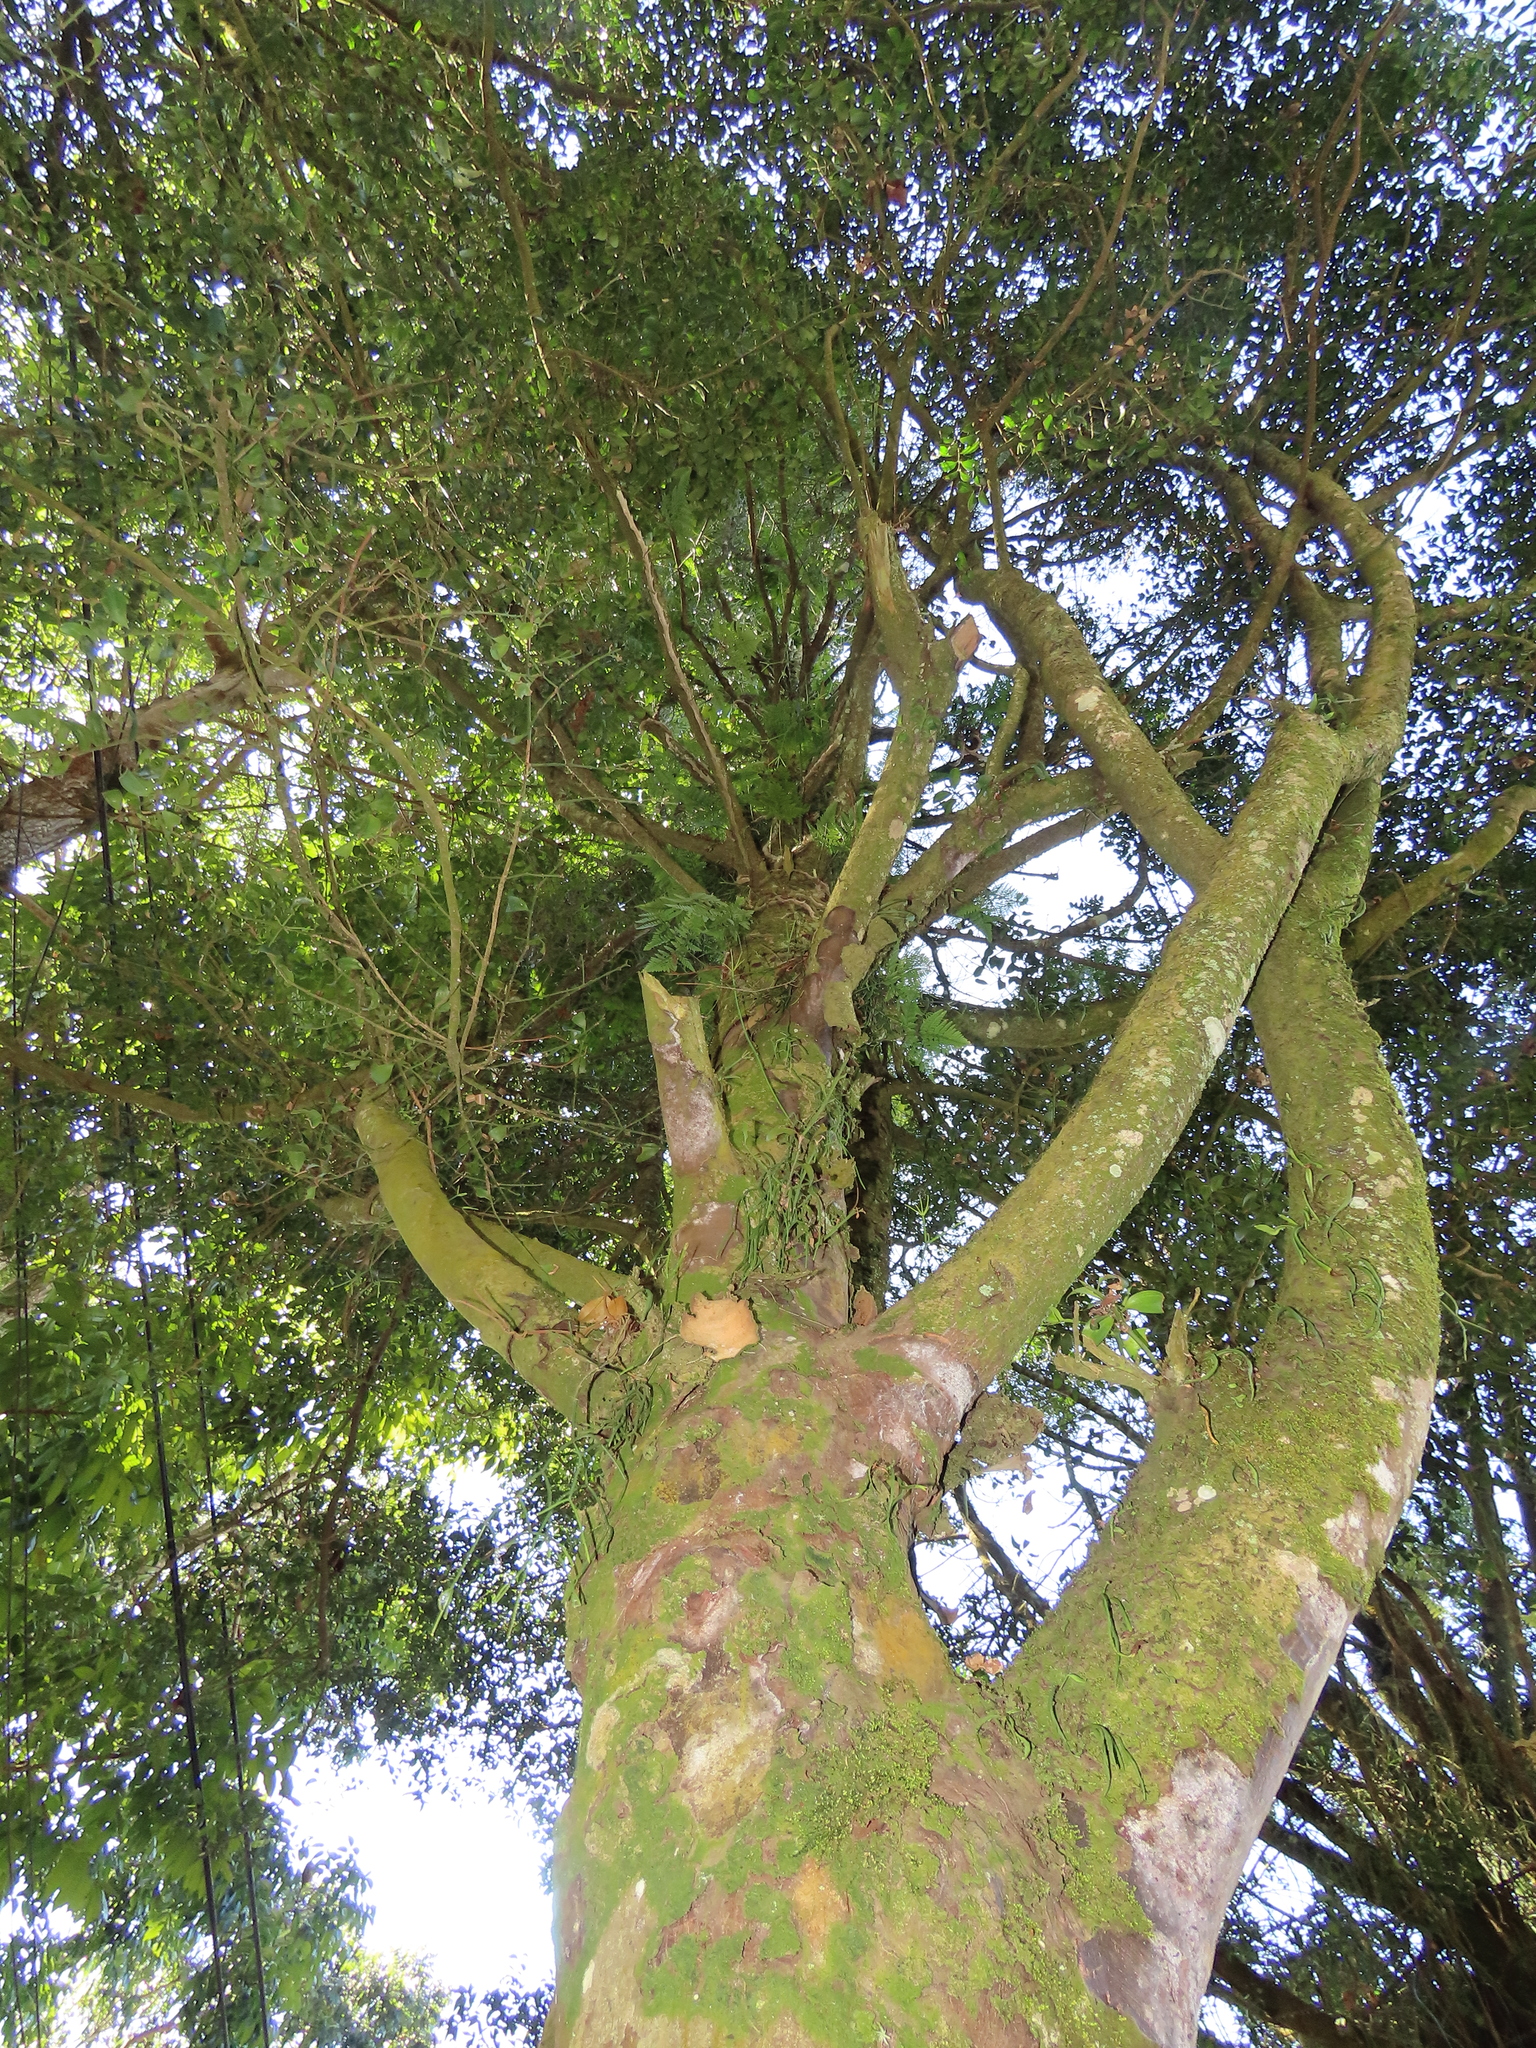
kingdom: Plantae
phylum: Tracheophyta
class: Magnoliopsida
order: Caryophyllales
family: Cactaceae
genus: Rhipsalis
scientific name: Rhipsalis baccifera
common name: Mistletoe cactus
